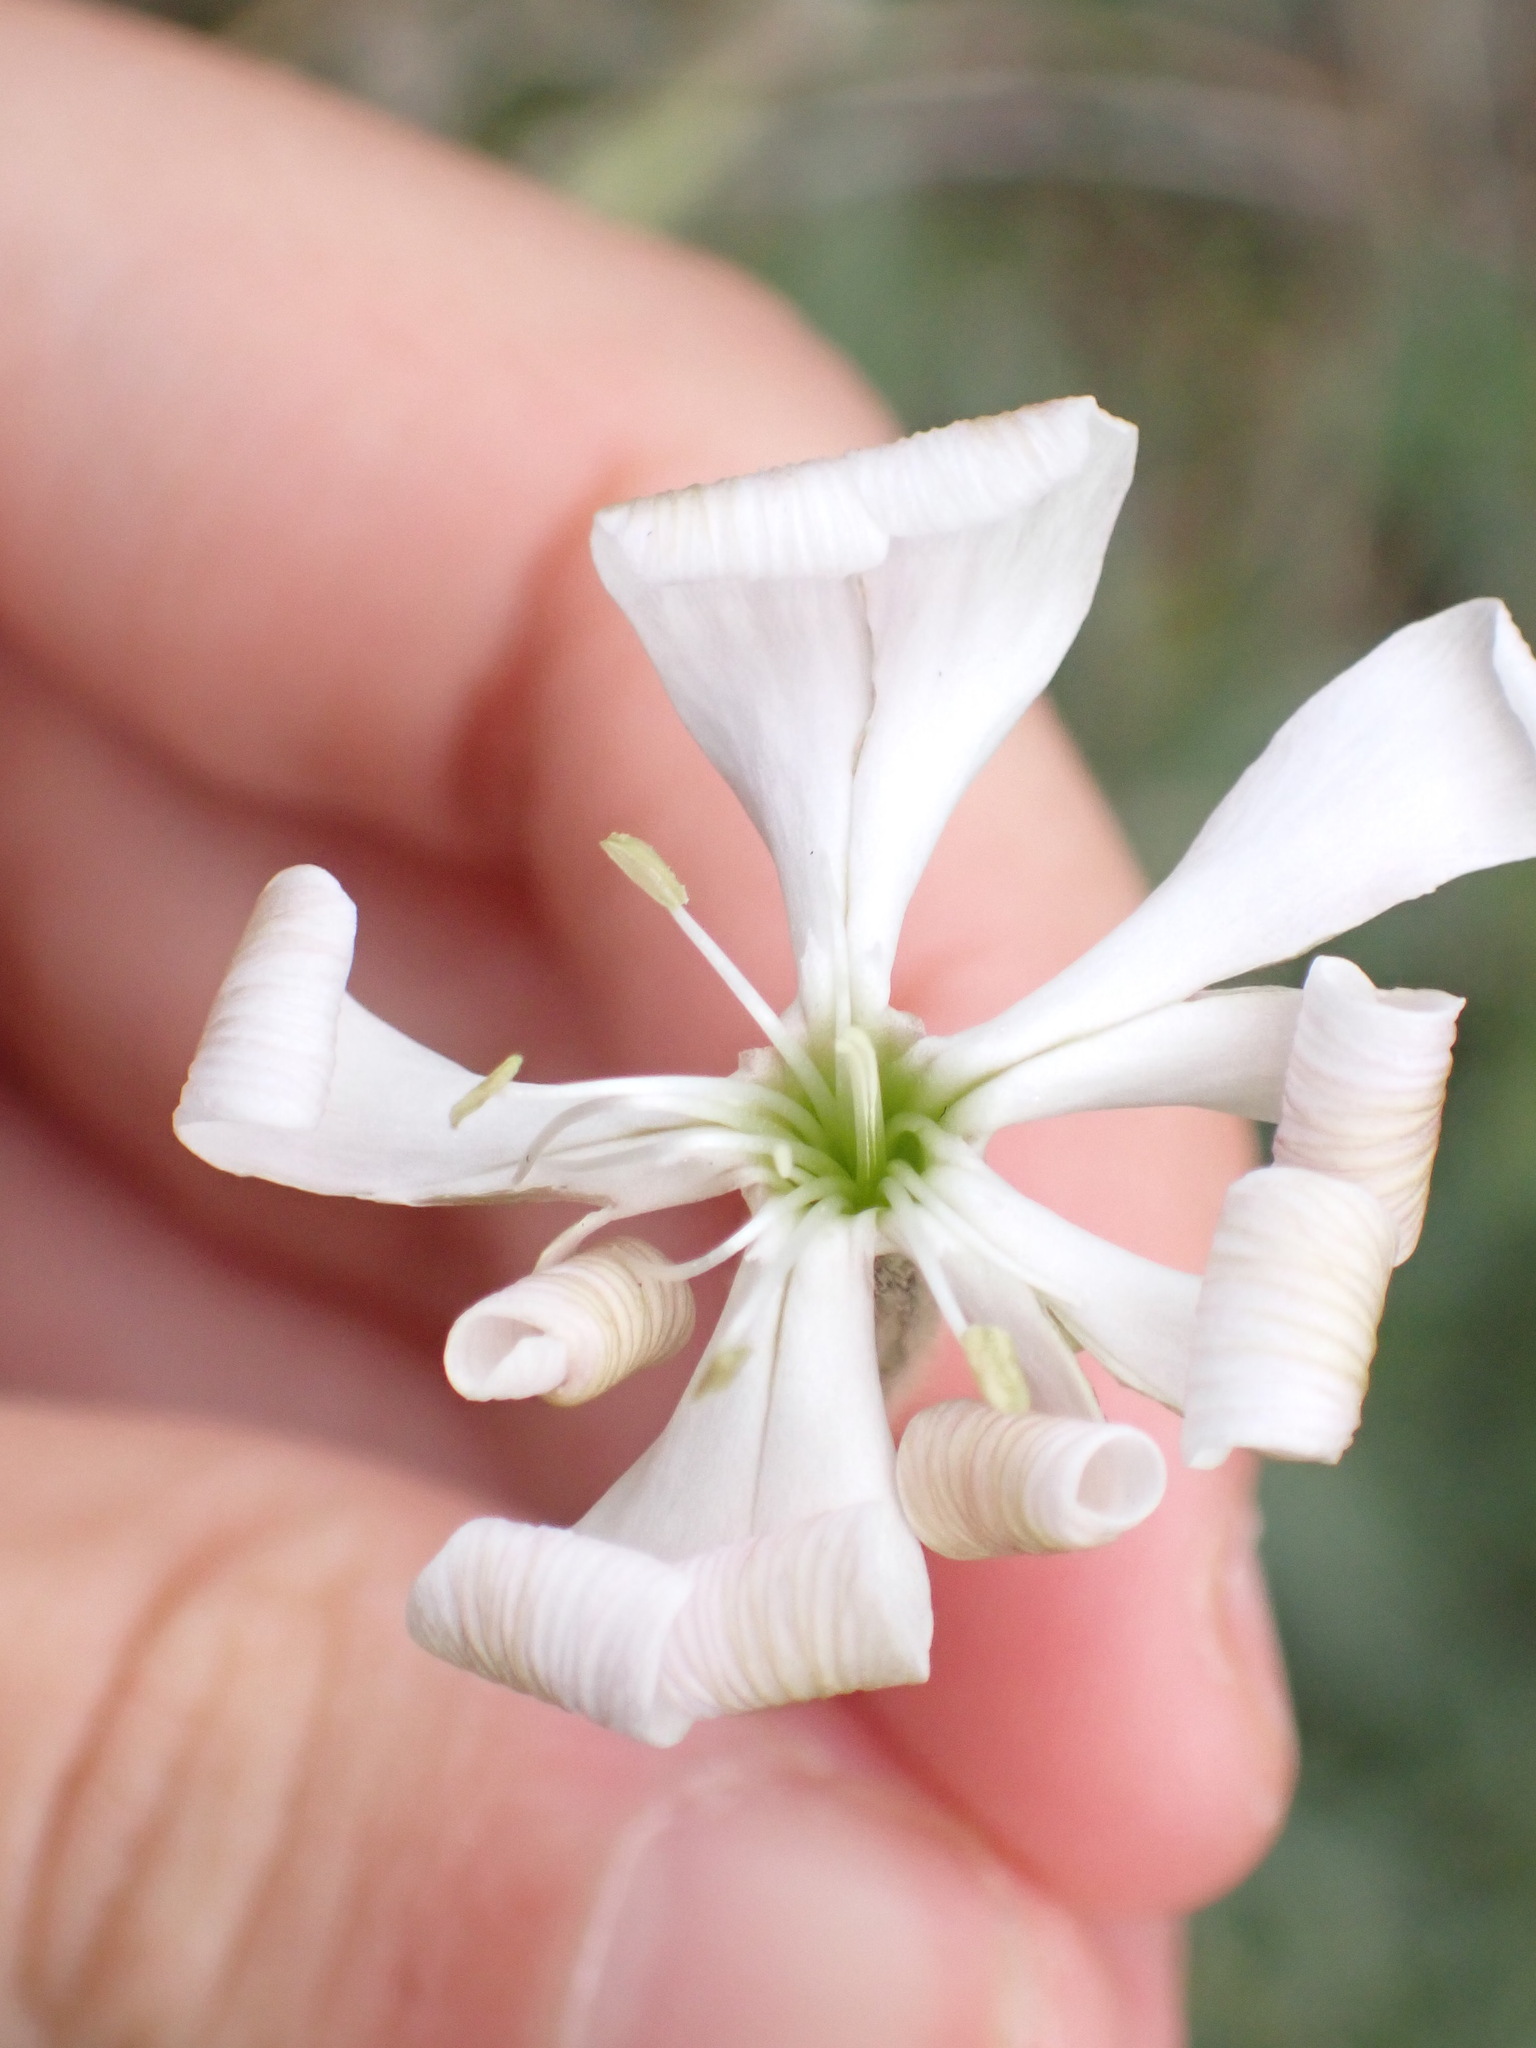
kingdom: Plantae
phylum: Tracheophyta
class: Magnoliopsida
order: Caryophyllales
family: Caryophyllaceae
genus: Silene
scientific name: Silene italica
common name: Italian catchfly
